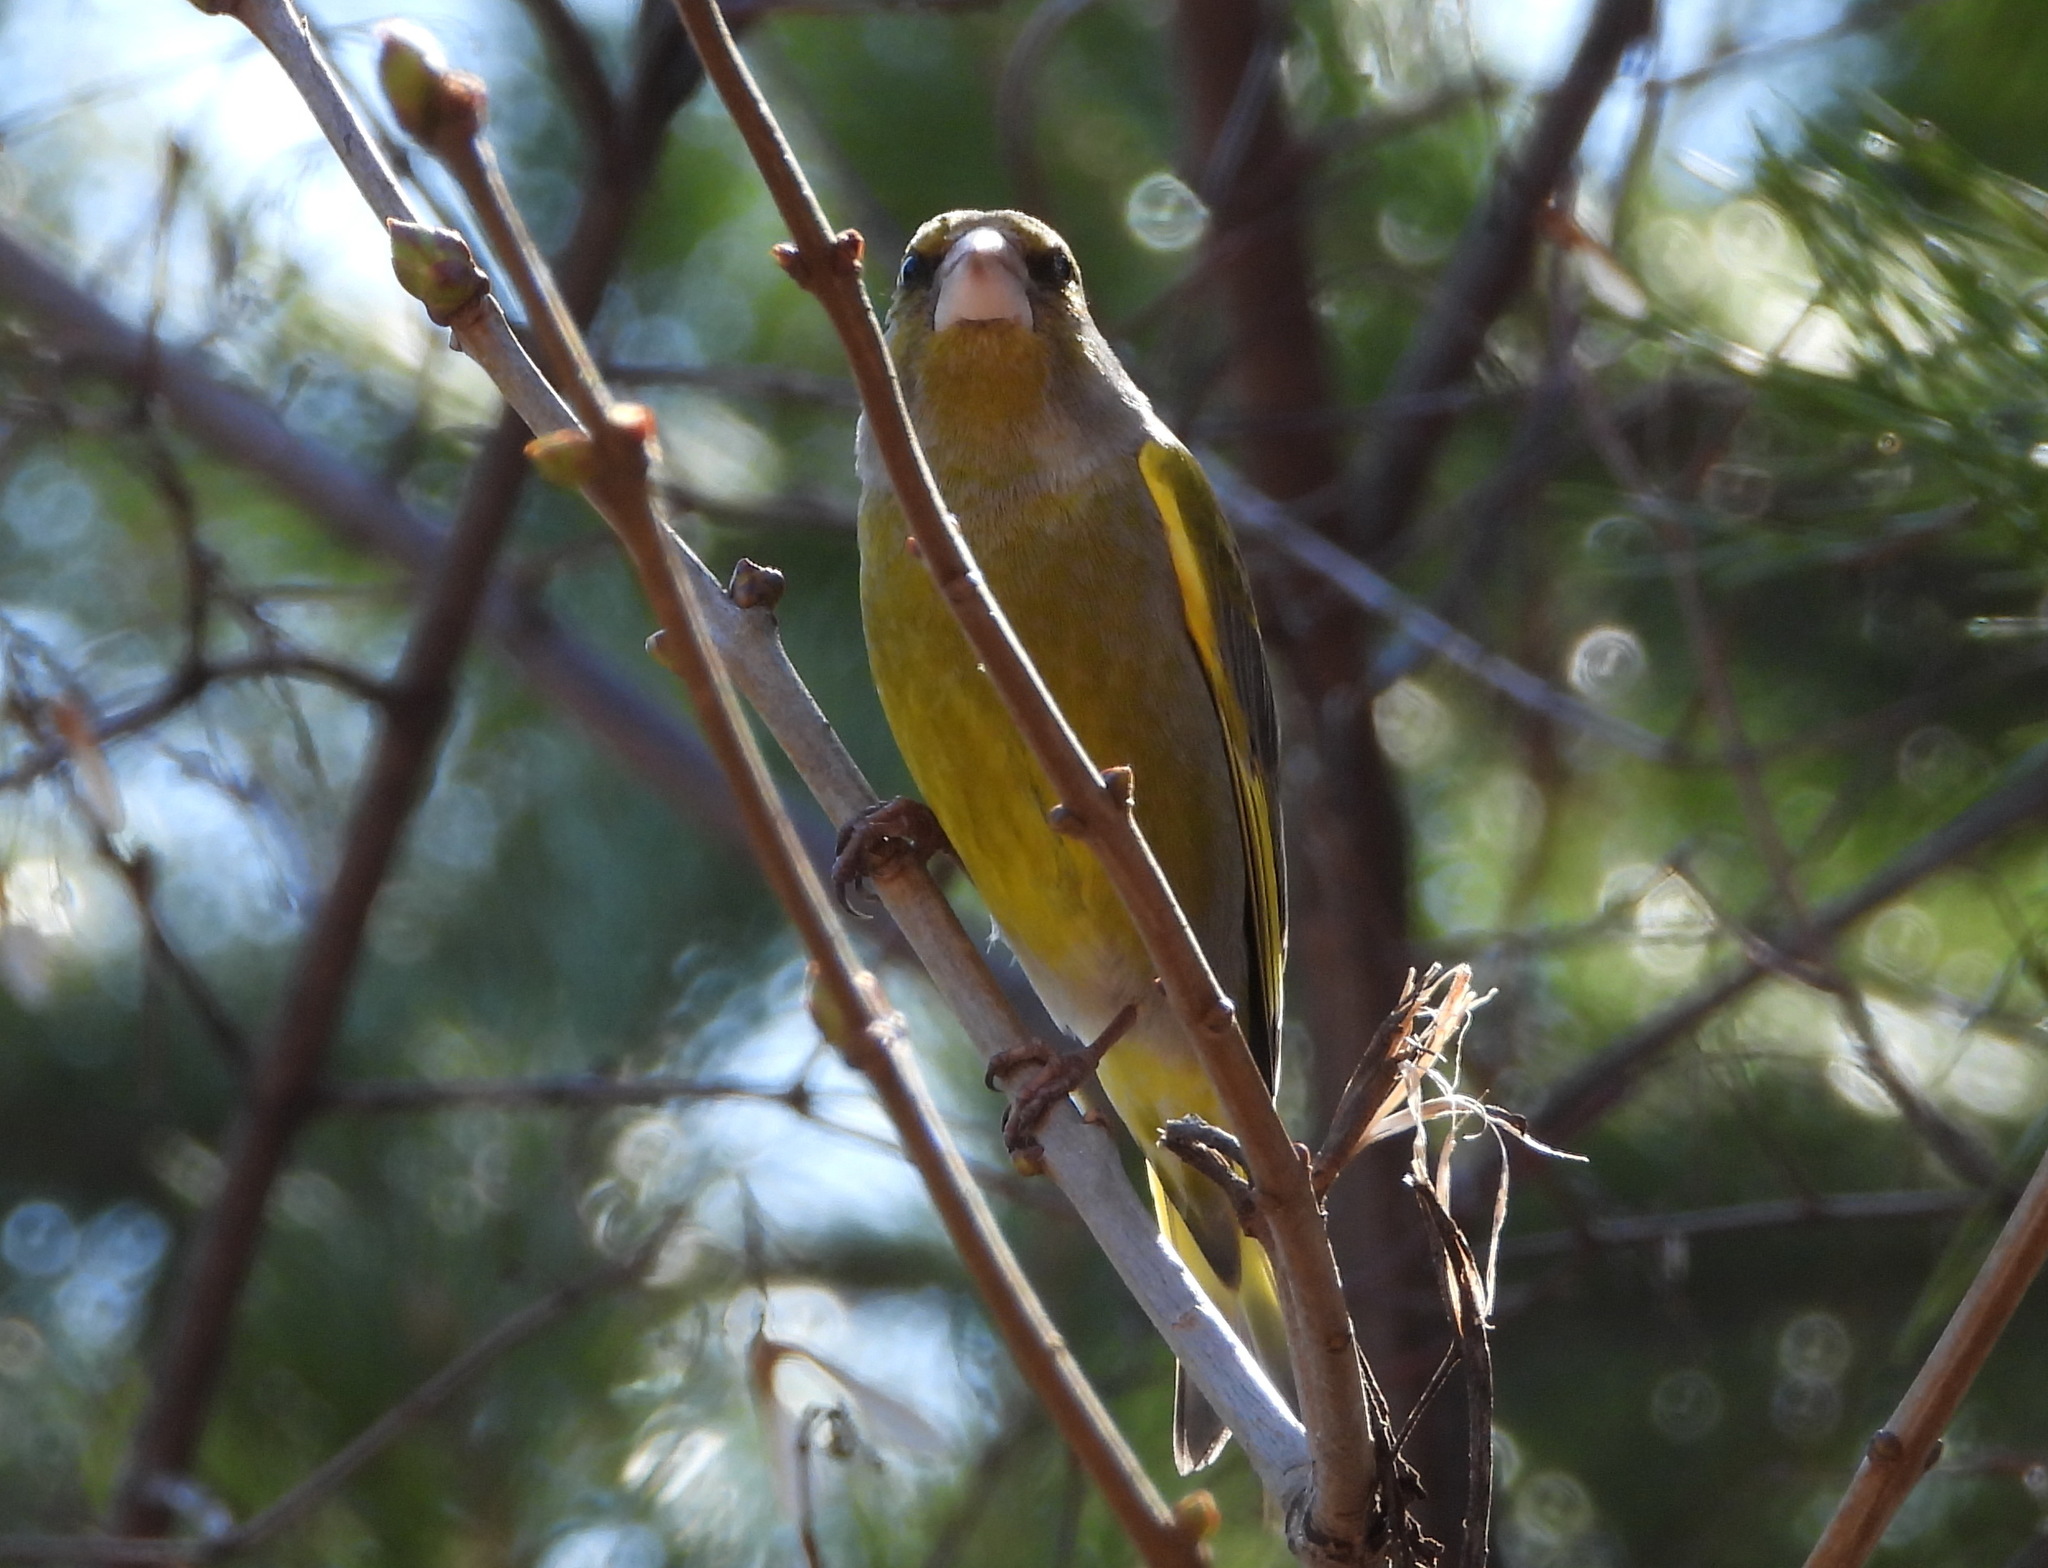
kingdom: Plantae
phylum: Tracheophyta
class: Liliopsida
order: Poales
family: Poaceae
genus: Chloris
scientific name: Chloris chloris
